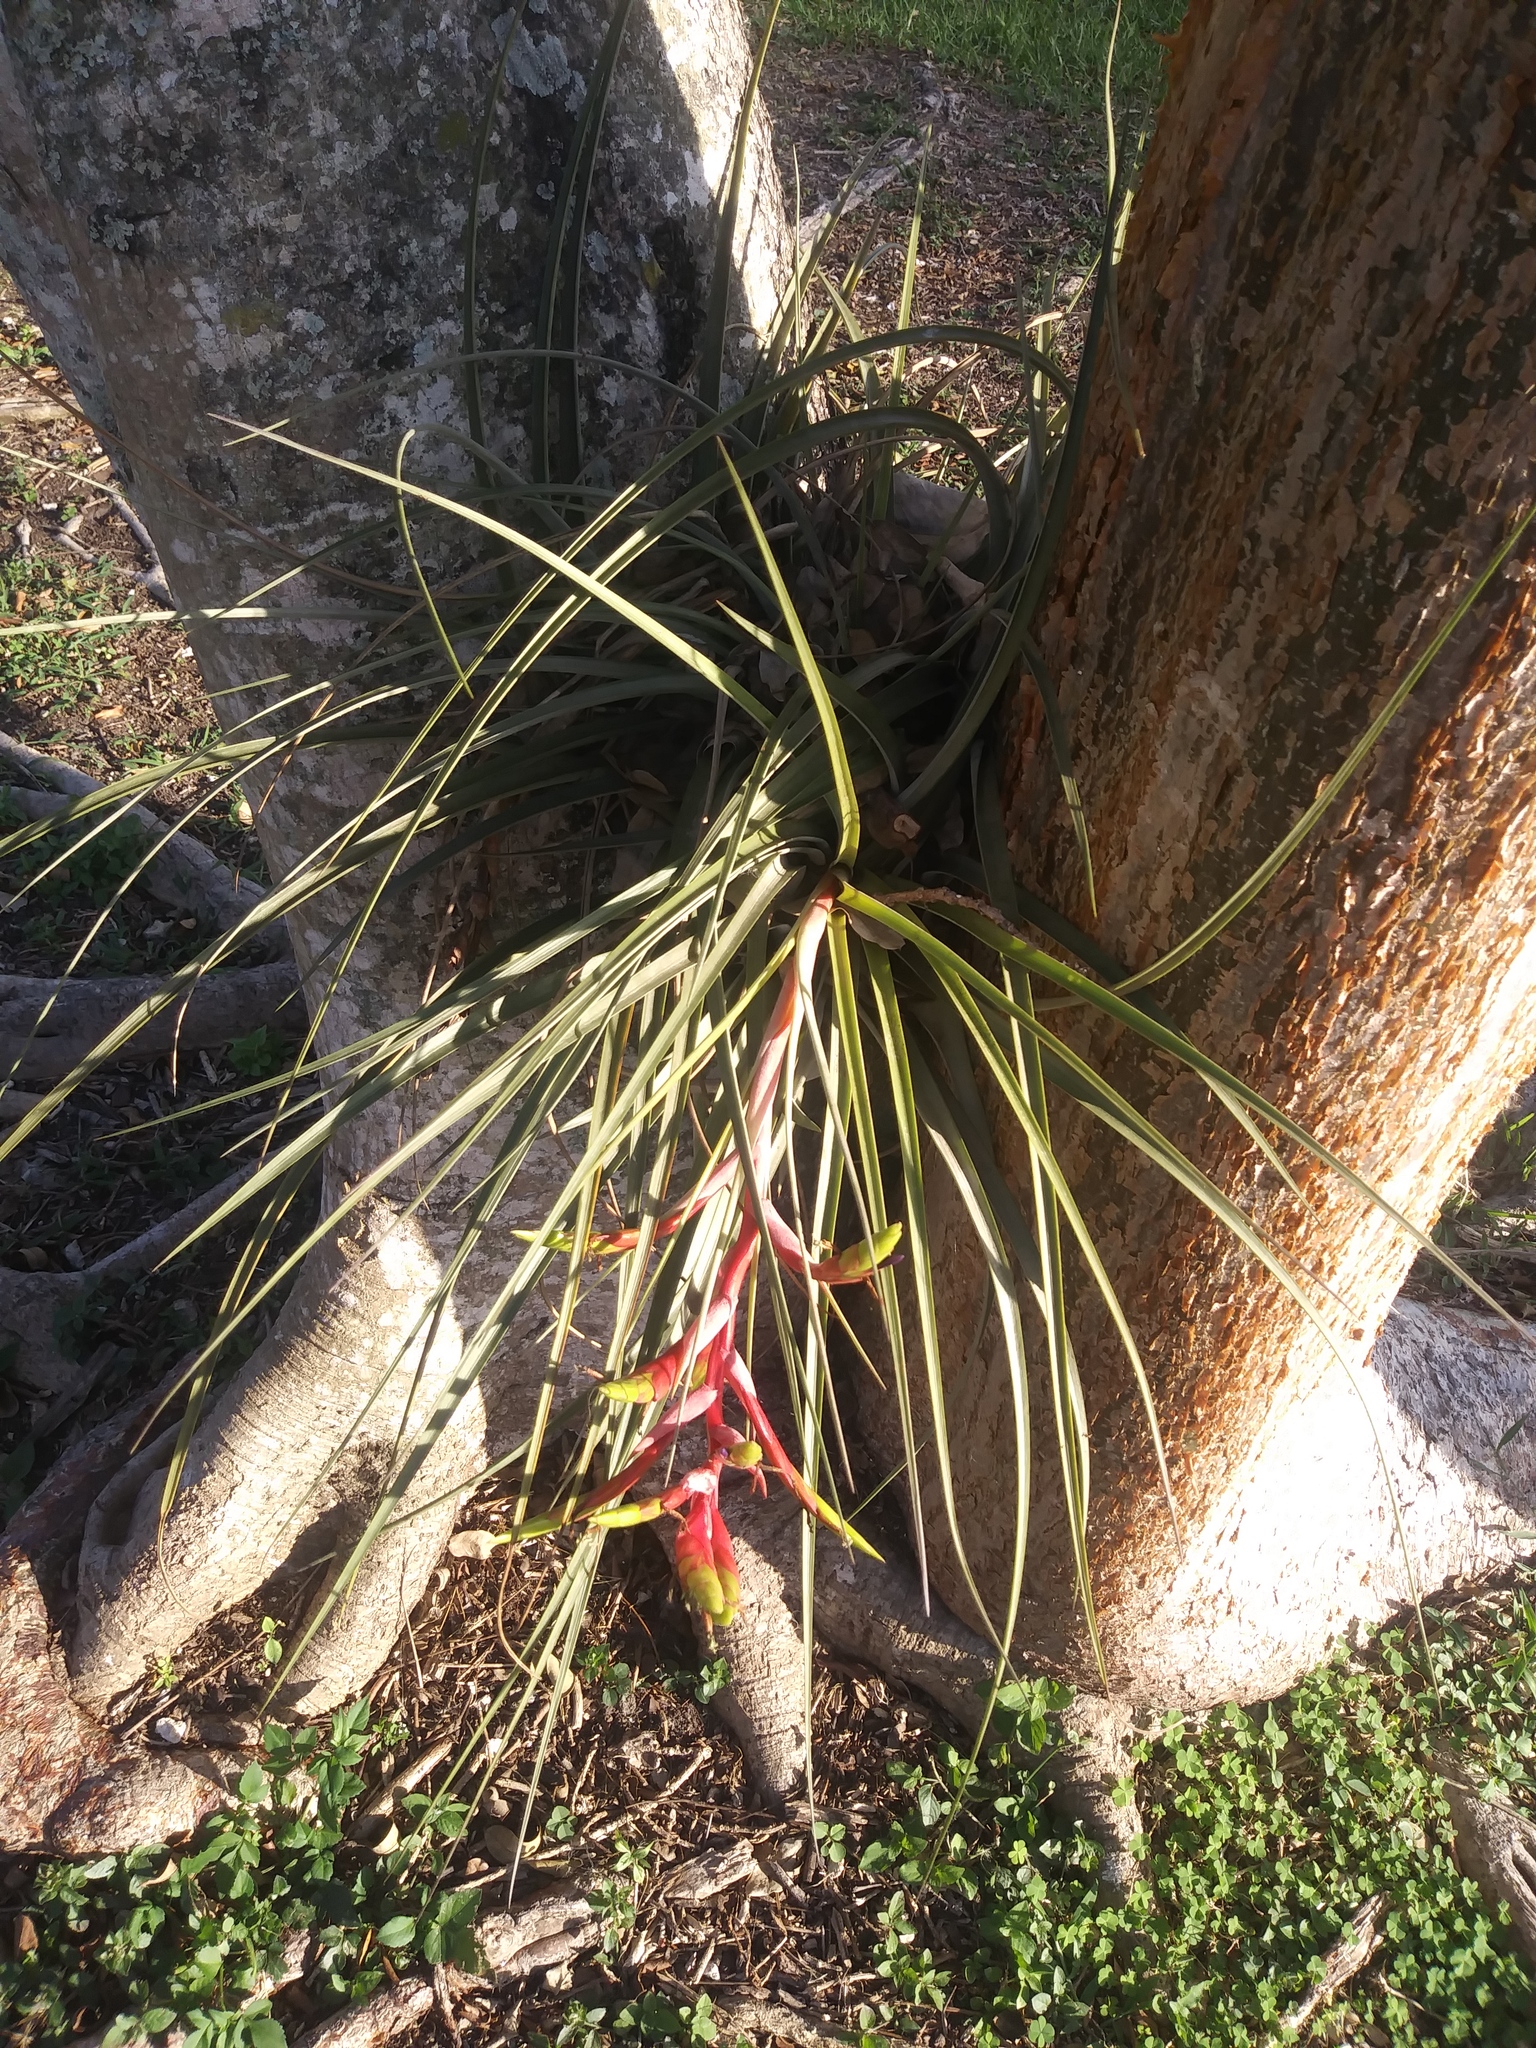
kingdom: Plantae
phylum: Tracheophyta
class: Liliopsida
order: Poales
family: Bromeliaceae
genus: Tillandsia
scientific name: Tillandsia fasciculata
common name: Giant airplant
